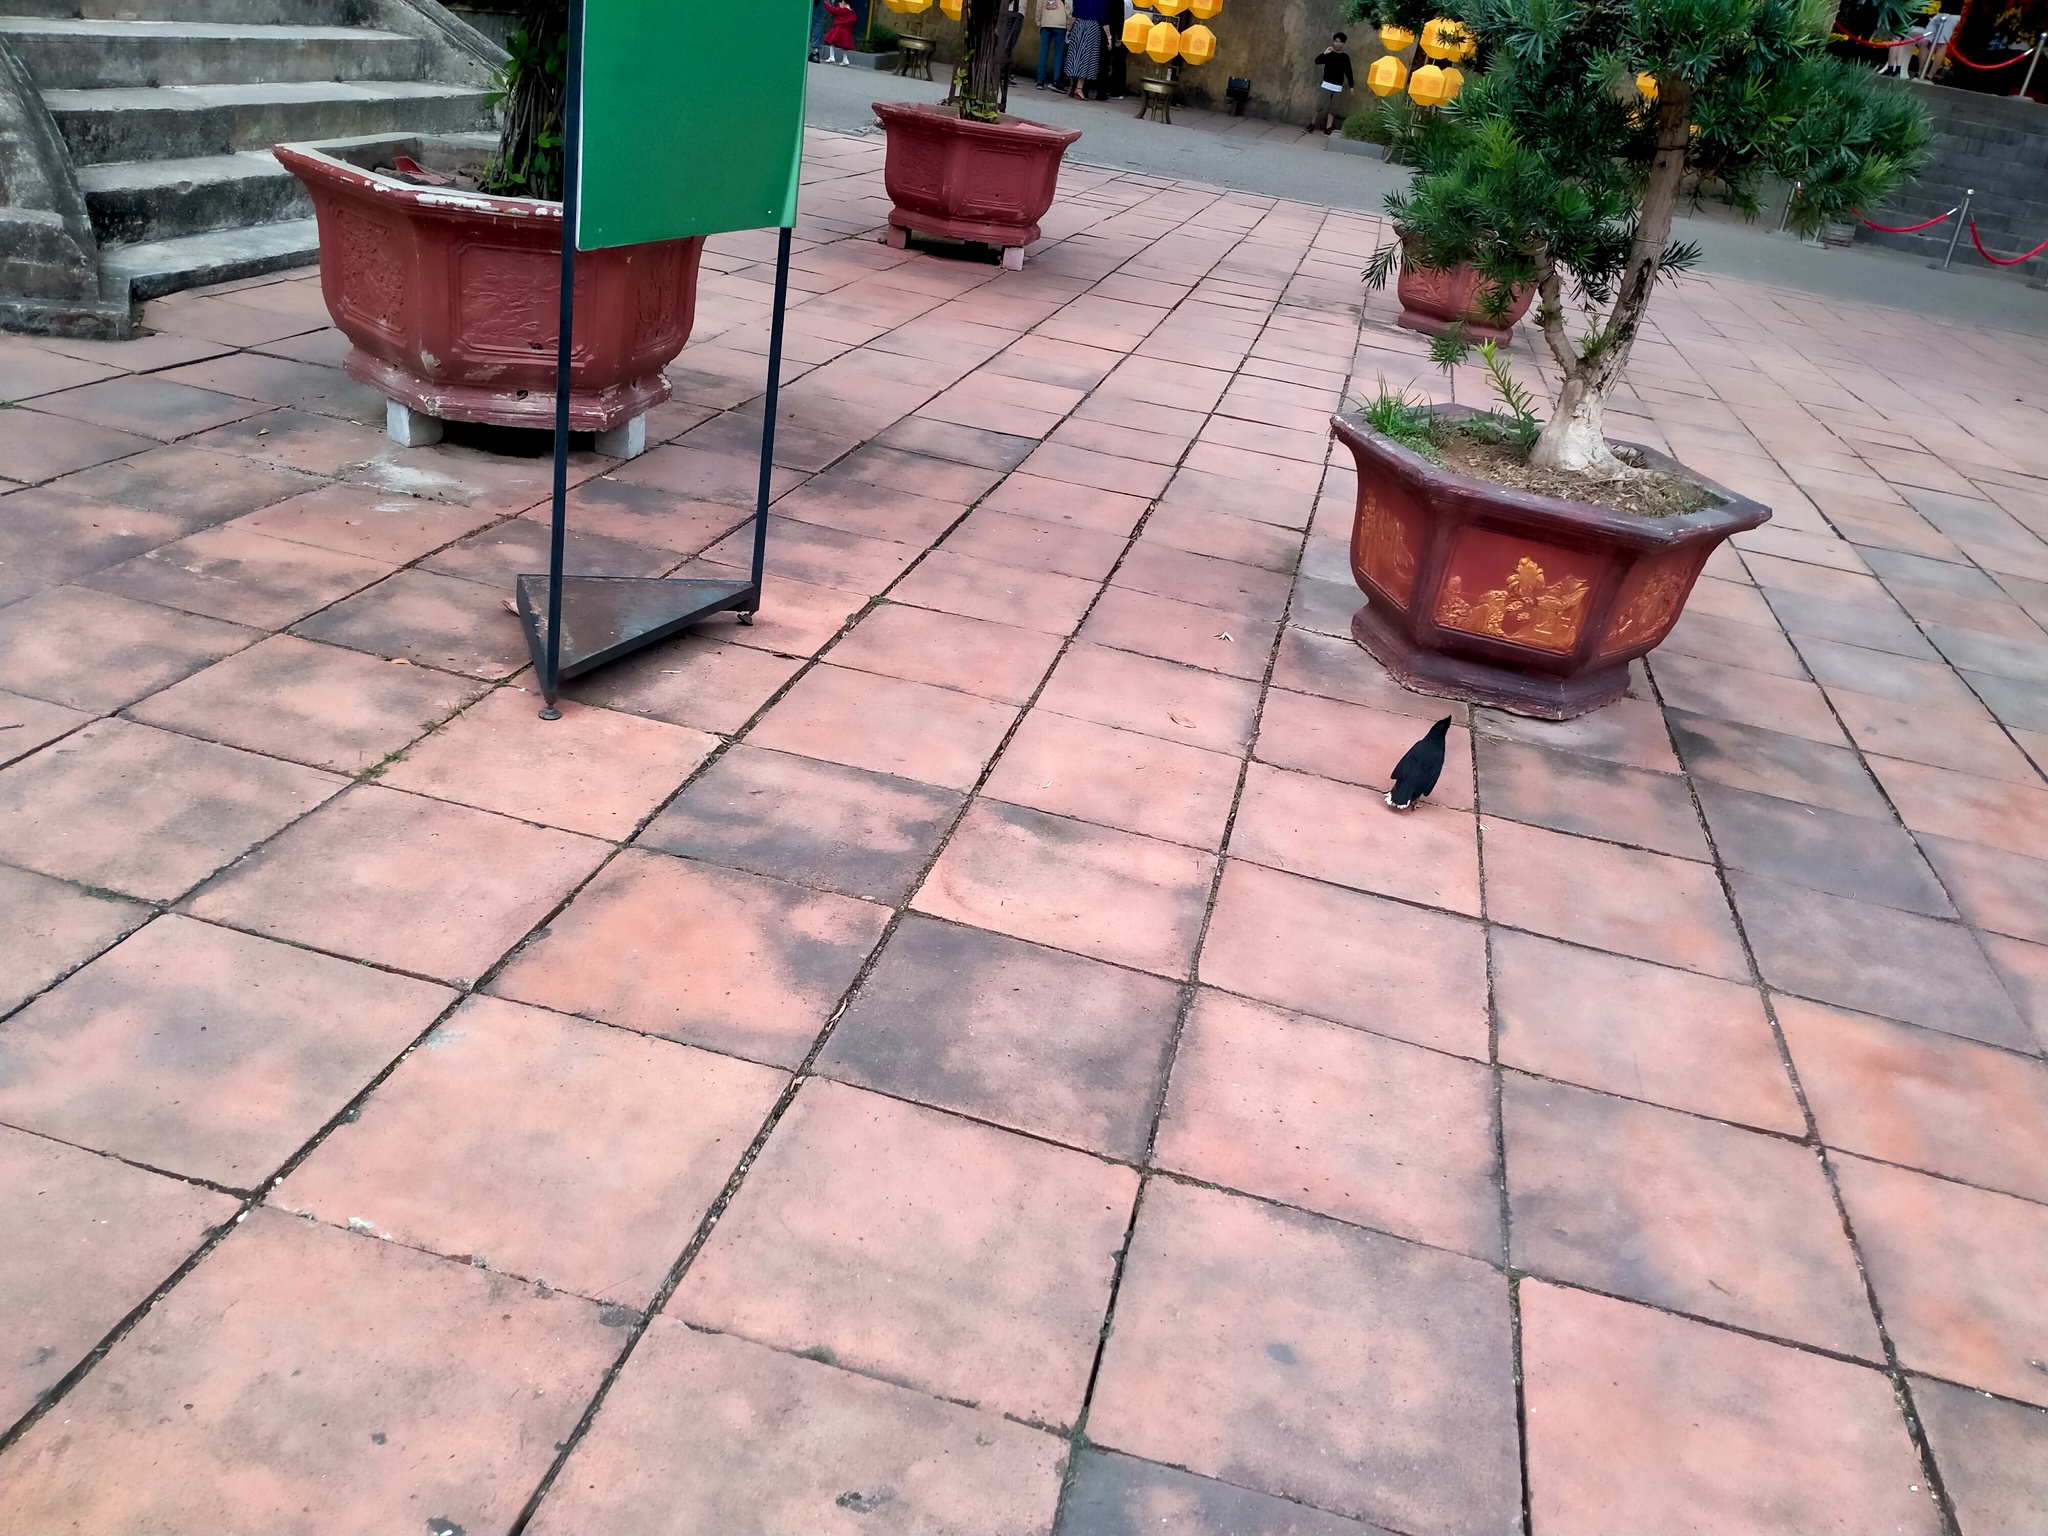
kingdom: Animalia
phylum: Chordata
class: Aves
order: Passeriformes
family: Sturnidae
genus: Acridotheres
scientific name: Acridotheres grandis
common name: Great myna
